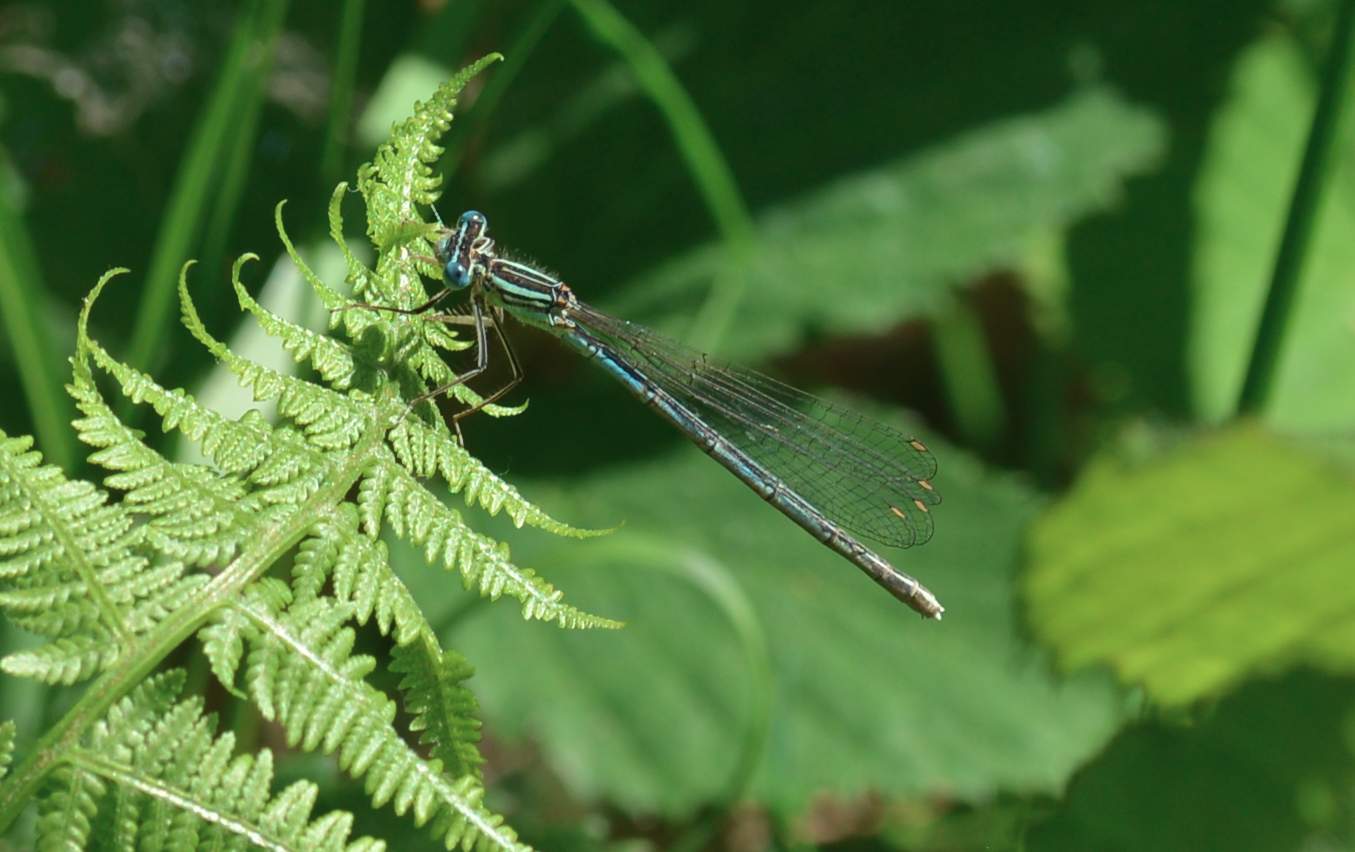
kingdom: Animalia
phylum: Arthropoda
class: Insecta
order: Odonata
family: Platycnemididae
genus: Platycnemis
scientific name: Platycnemis pennipes
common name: White-legged damselfly
